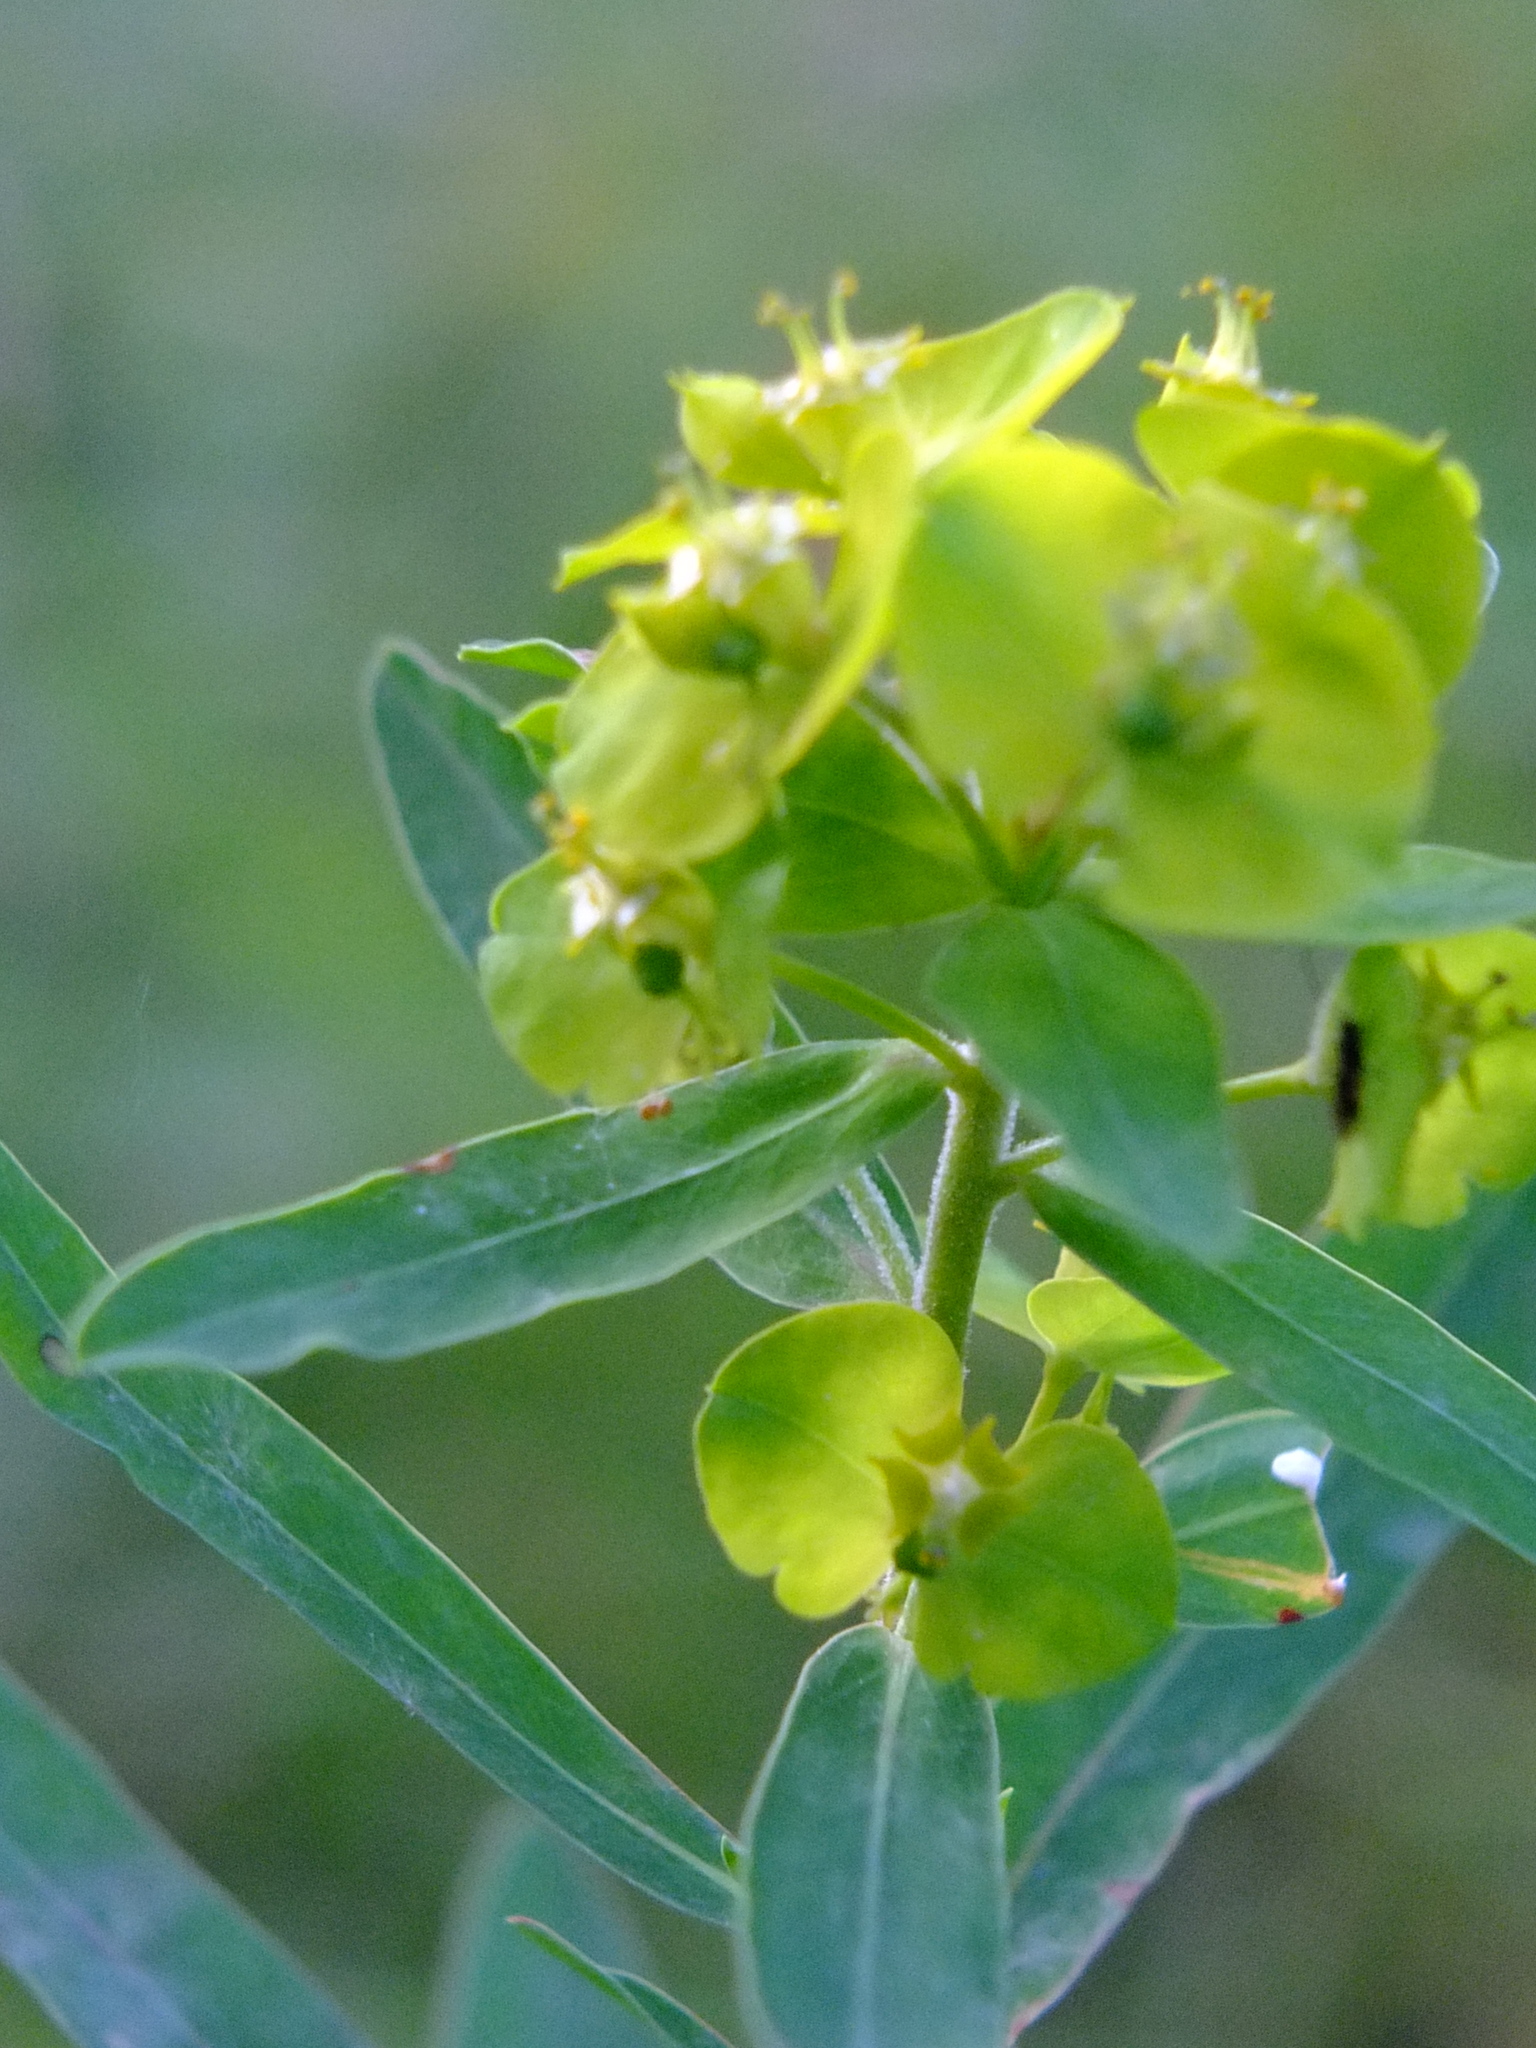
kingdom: Plantae
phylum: Tracheophyta
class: Magnoliopsida
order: Malpighiales
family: Euphorbiaceae
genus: Euphorbia
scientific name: Euphorbia virgata
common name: Leafy spurge
